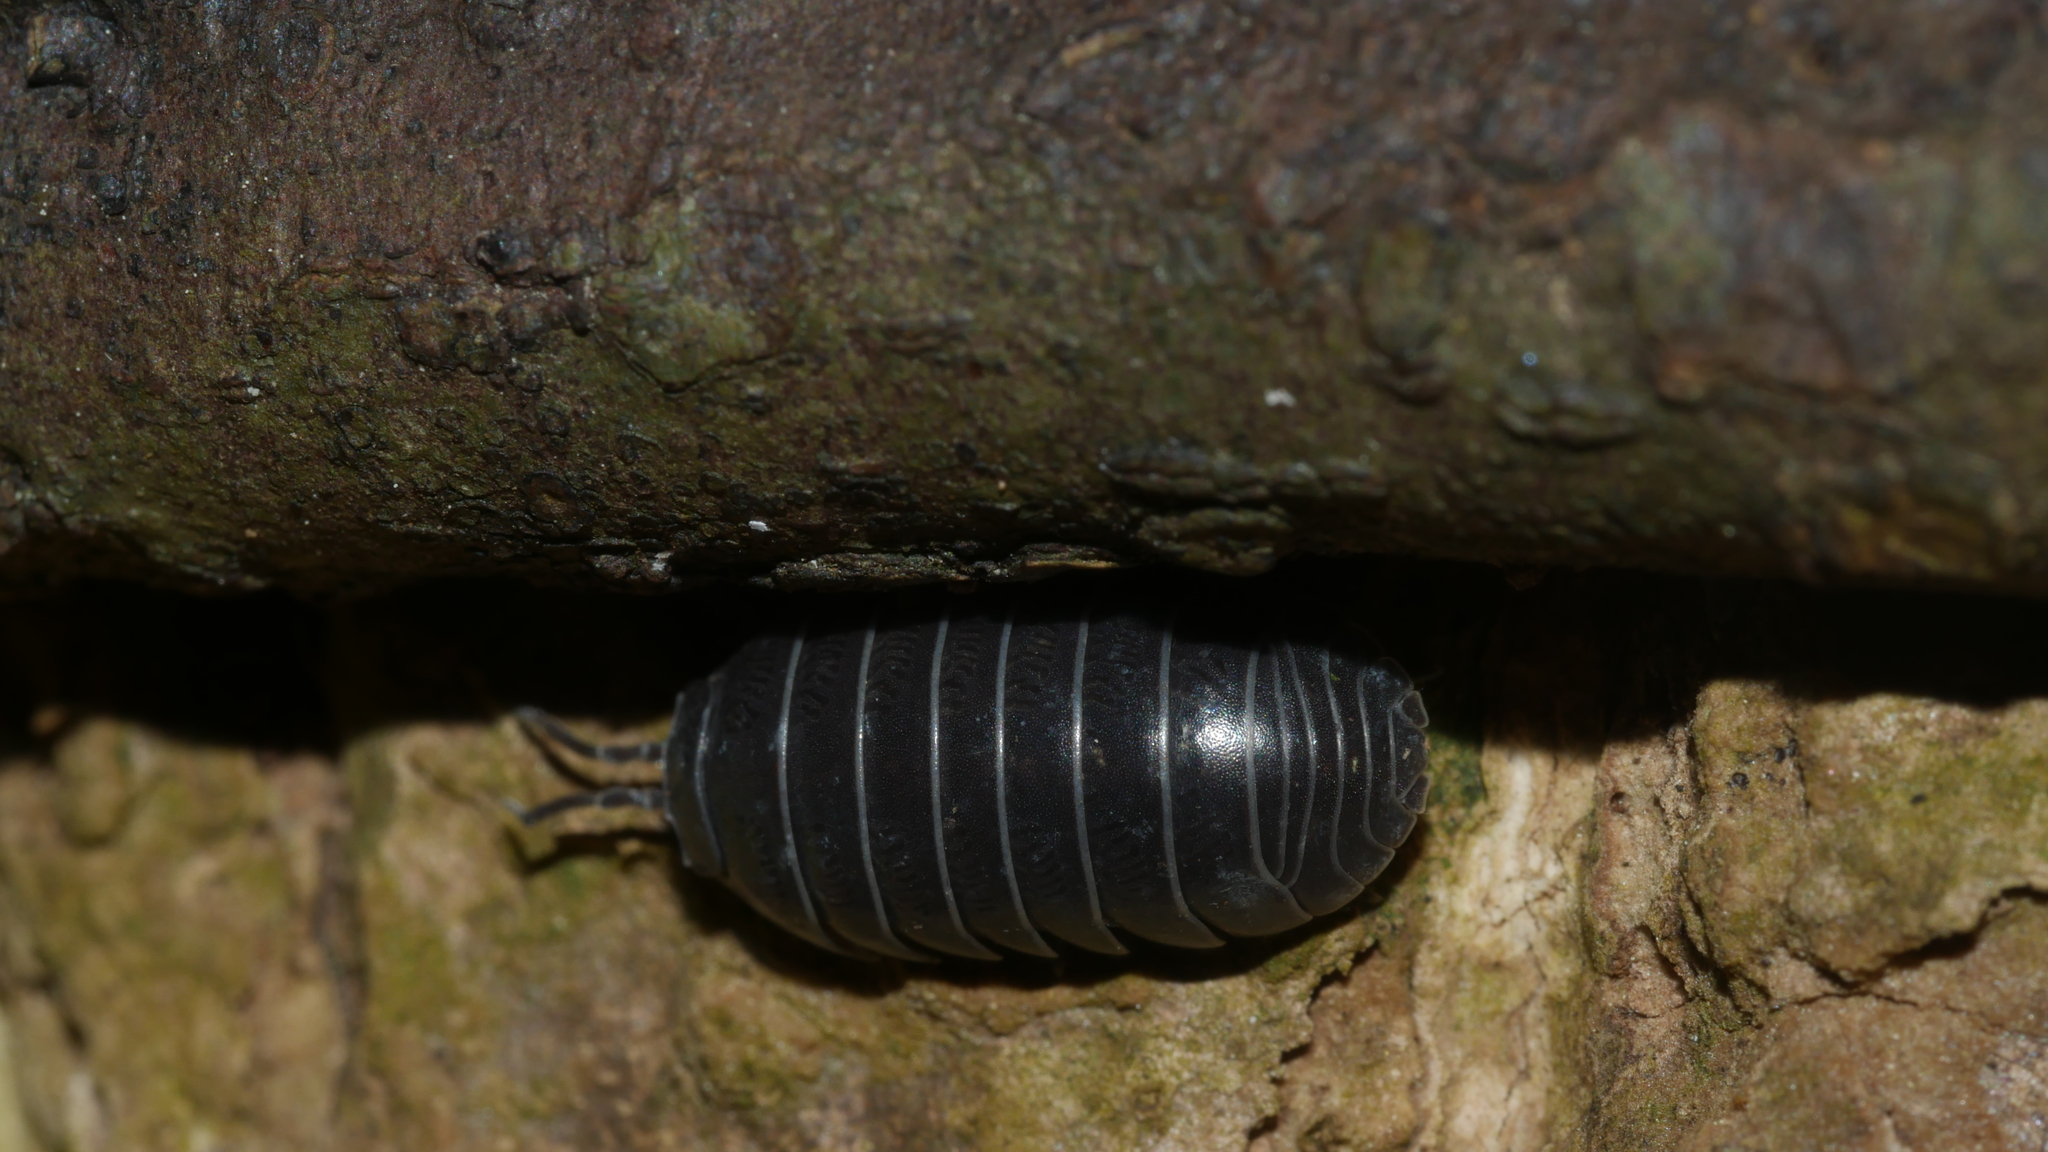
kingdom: Animalia
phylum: Arthropoda
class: Malacostraca
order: Isopoda
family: Armadillidiidae
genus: Armadillidium
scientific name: Armadillidium vulgare
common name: Common pill woodlouse
